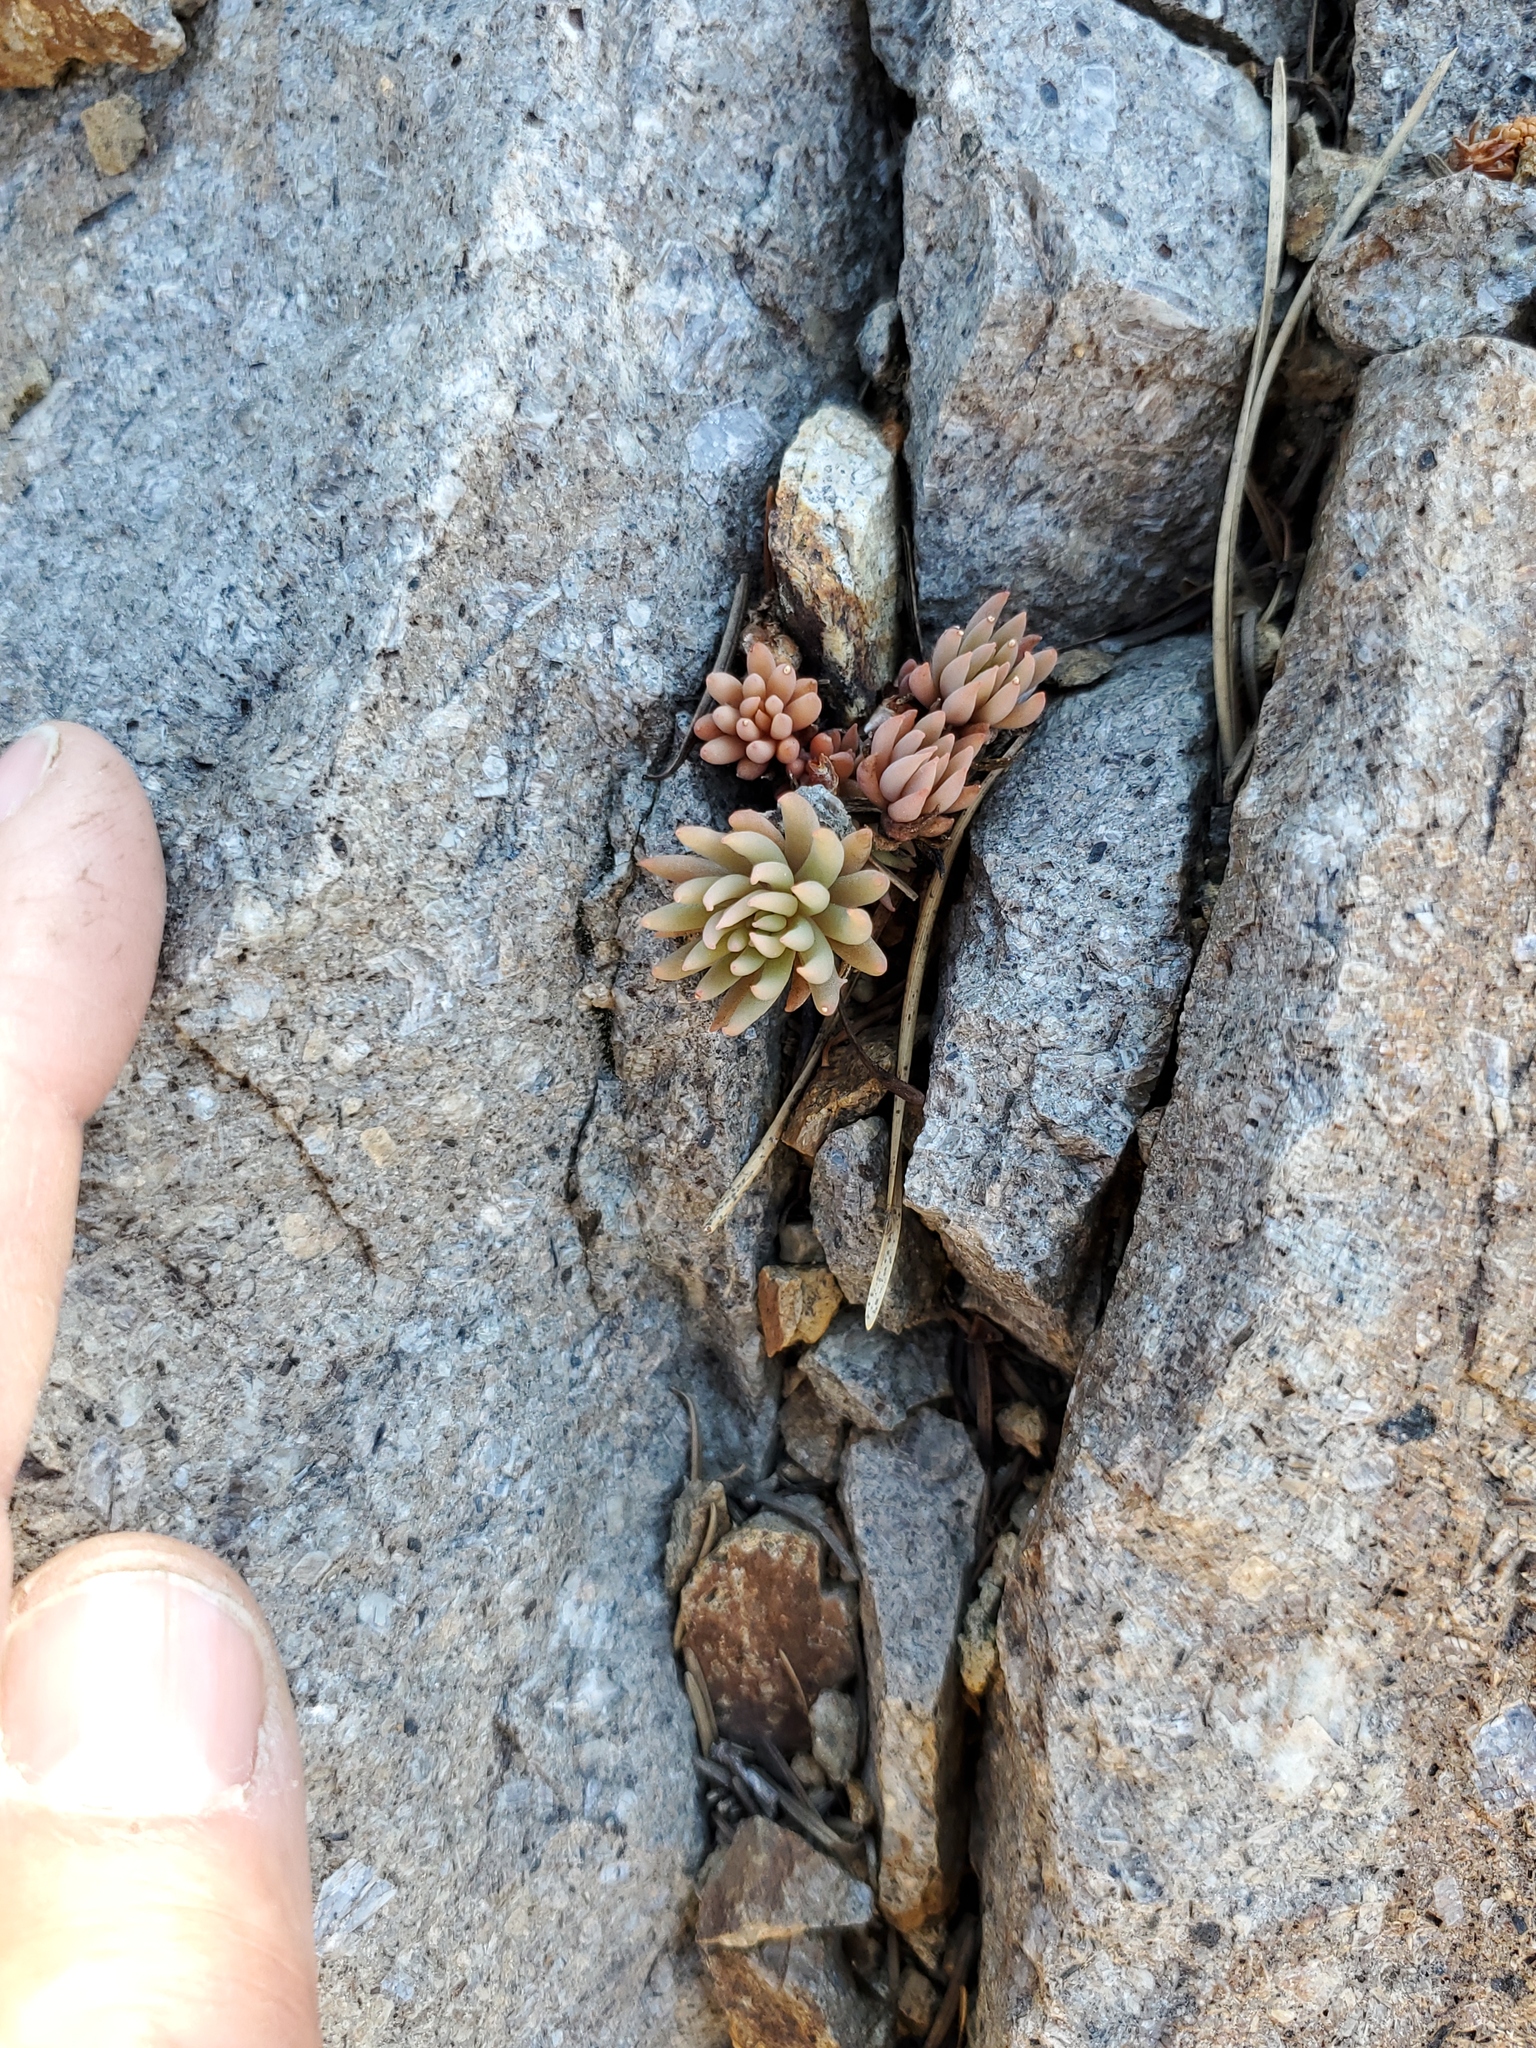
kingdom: Plantae
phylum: Tracheophyta
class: Magnoliopsida
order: Saxifragales
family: Crassulaceae
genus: Sedum
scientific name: Sedum lanceolatum
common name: Common stonecrop
